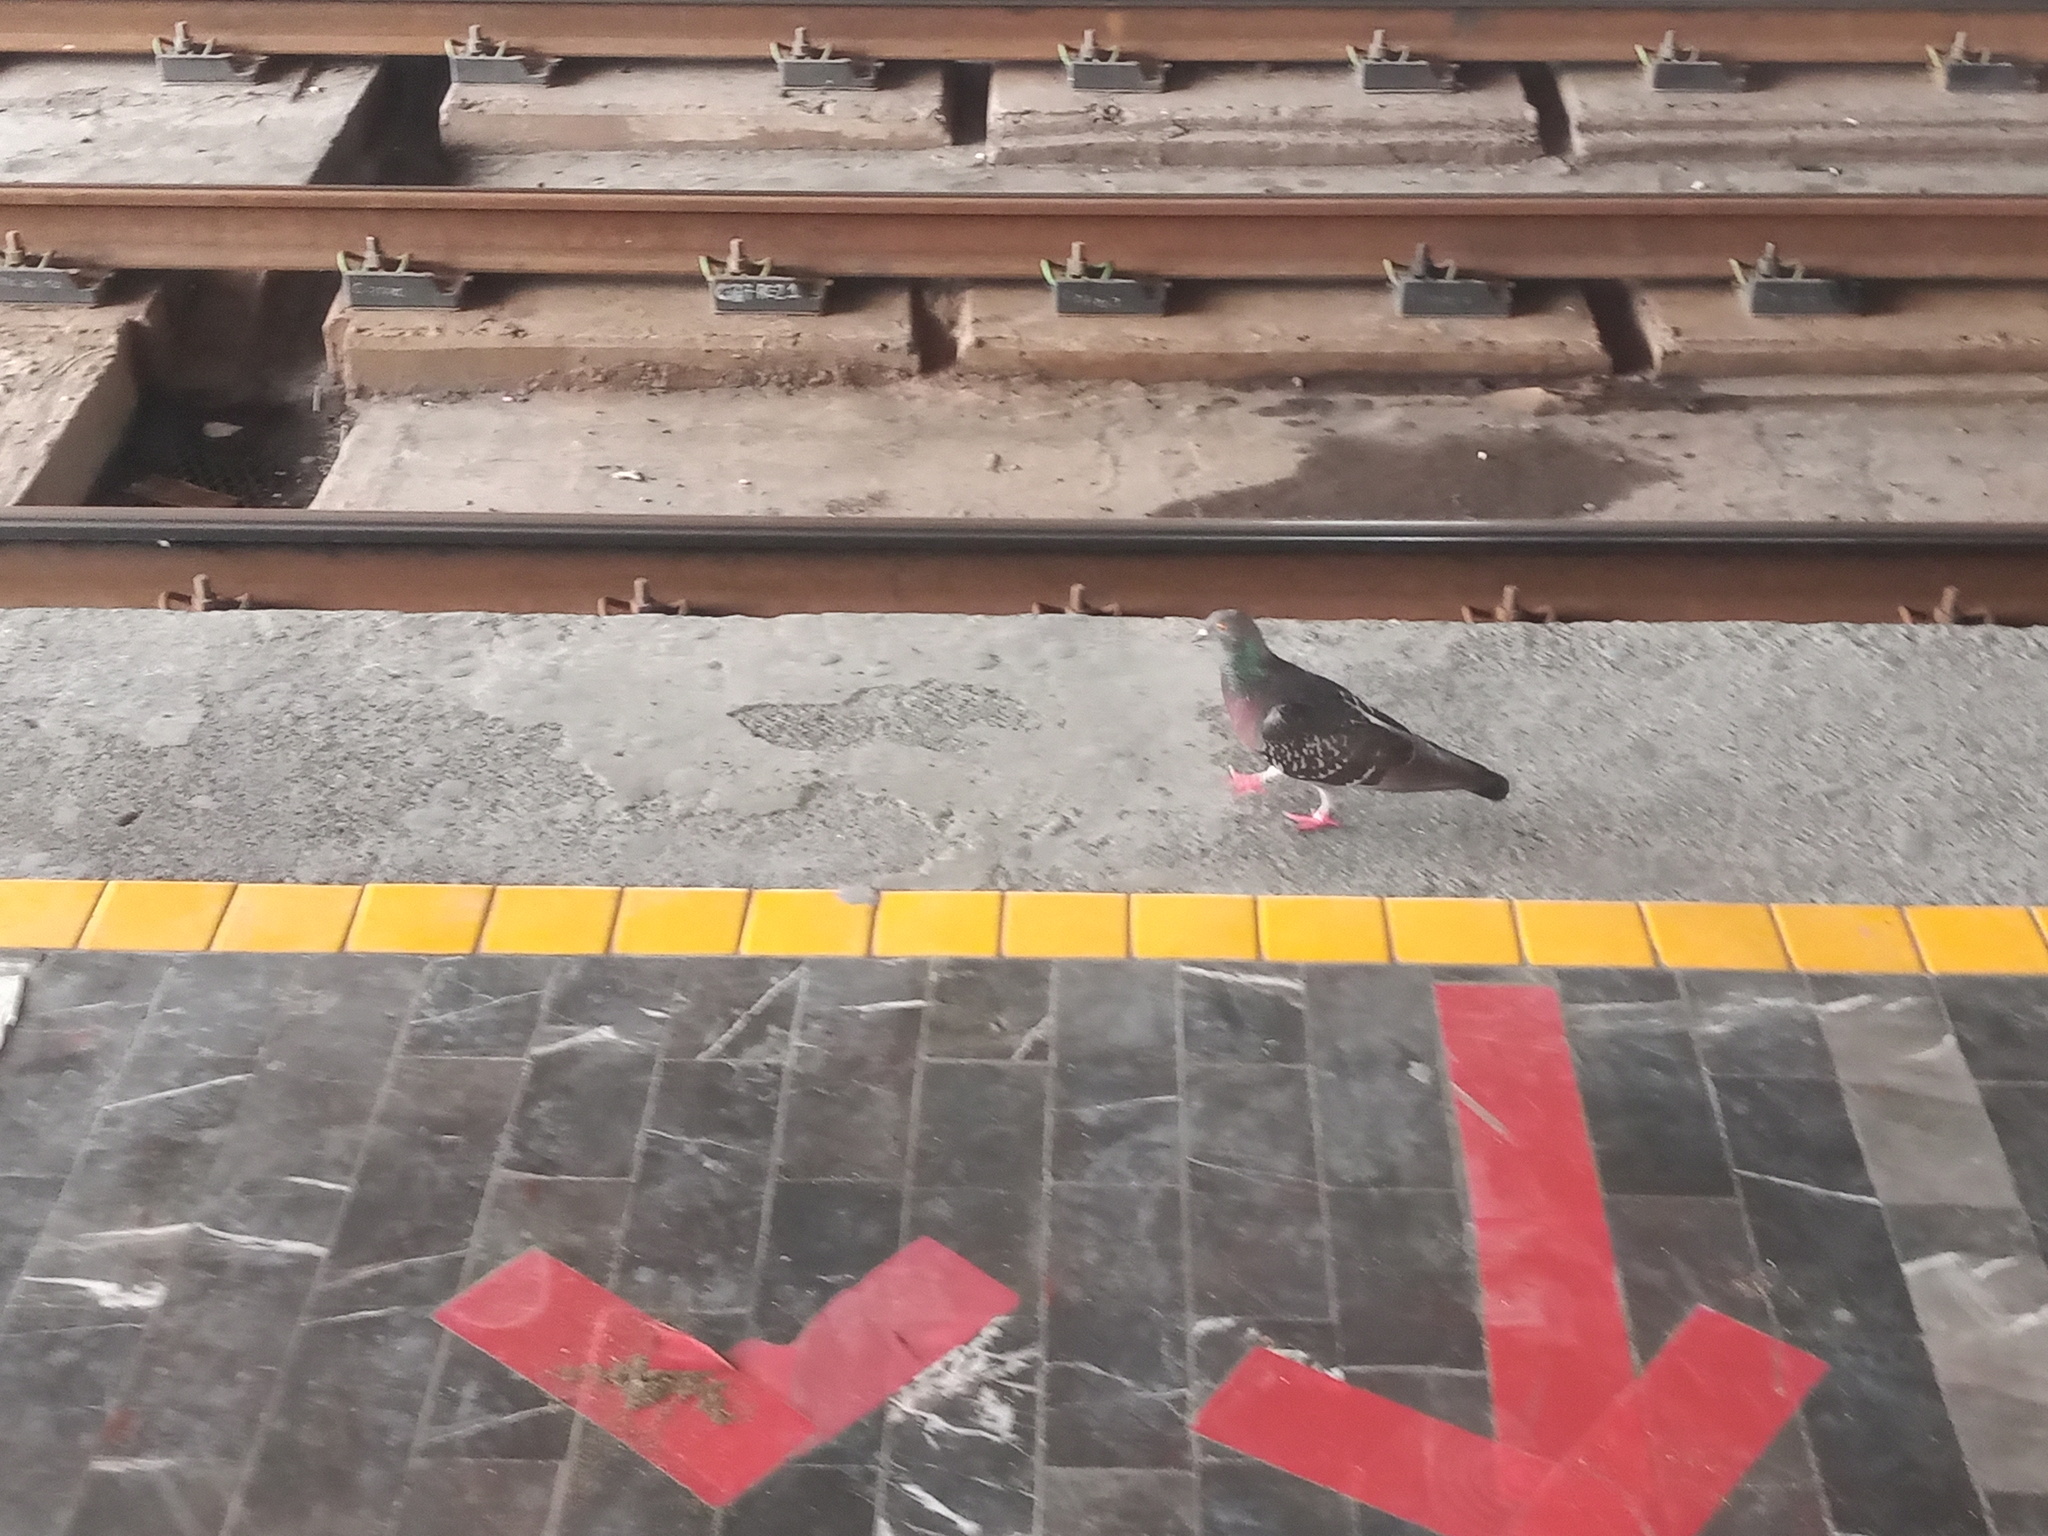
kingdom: Animalia
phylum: Chordata
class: Aves
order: Columbiformes
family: Columbidae
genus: Columba
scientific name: Columba livia
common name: Rock pigeon
